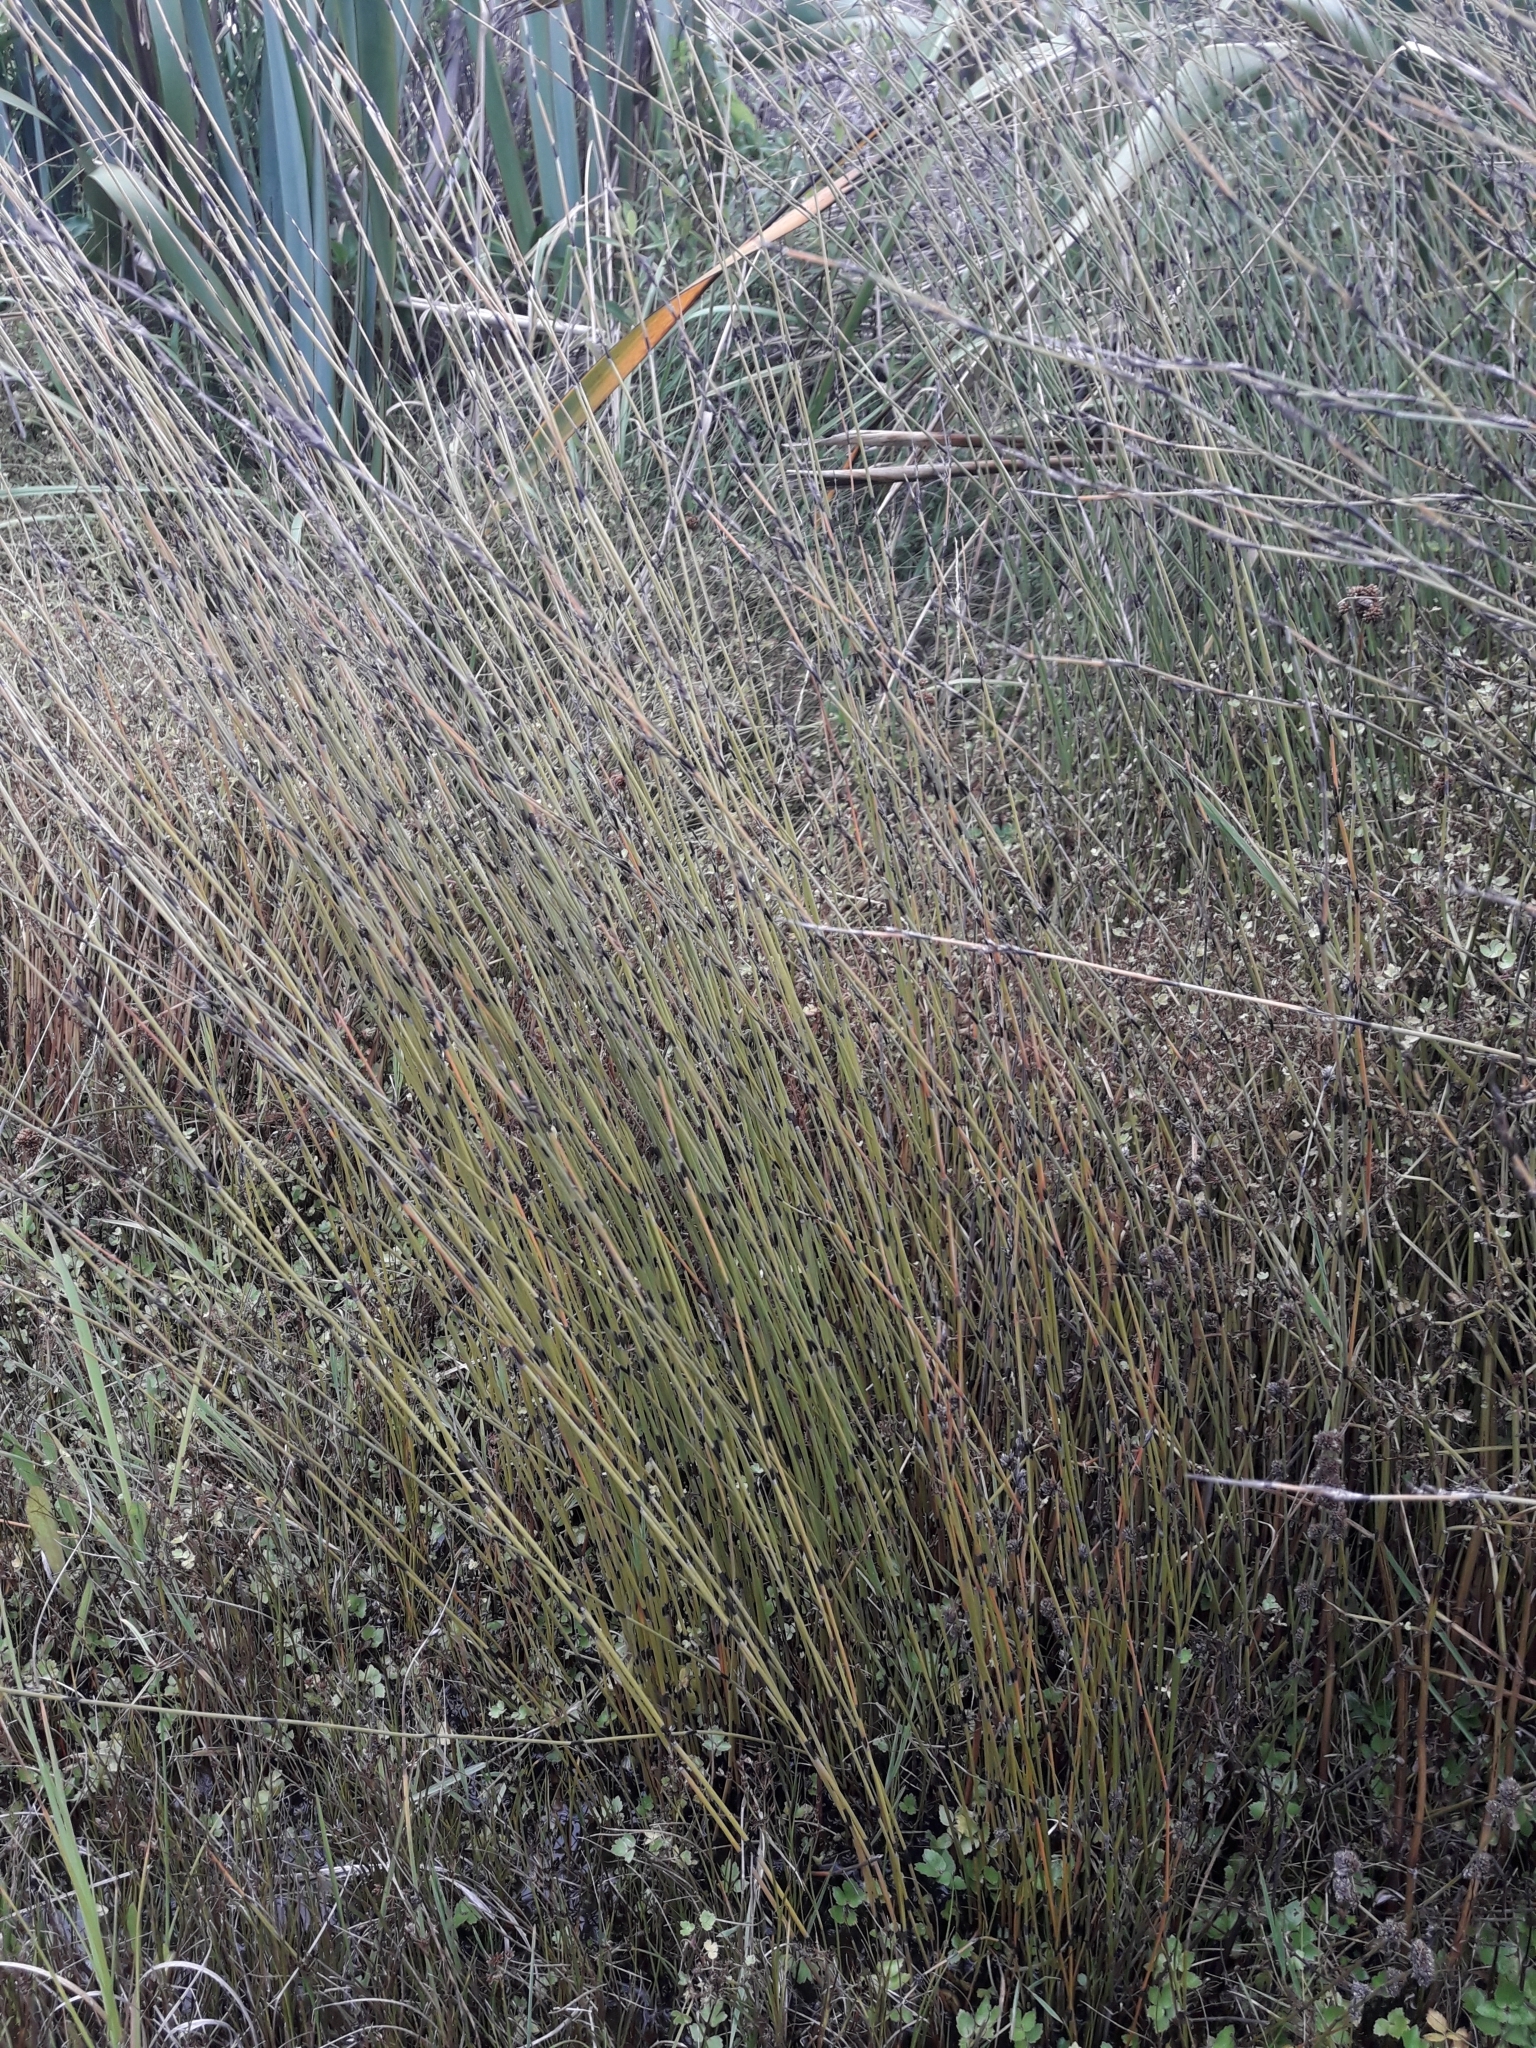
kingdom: Plantae
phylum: Tracheophyta
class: Liliopsida
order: Poales
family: Restionaceae
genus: Apodasmia
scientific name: Apodasmia similis
